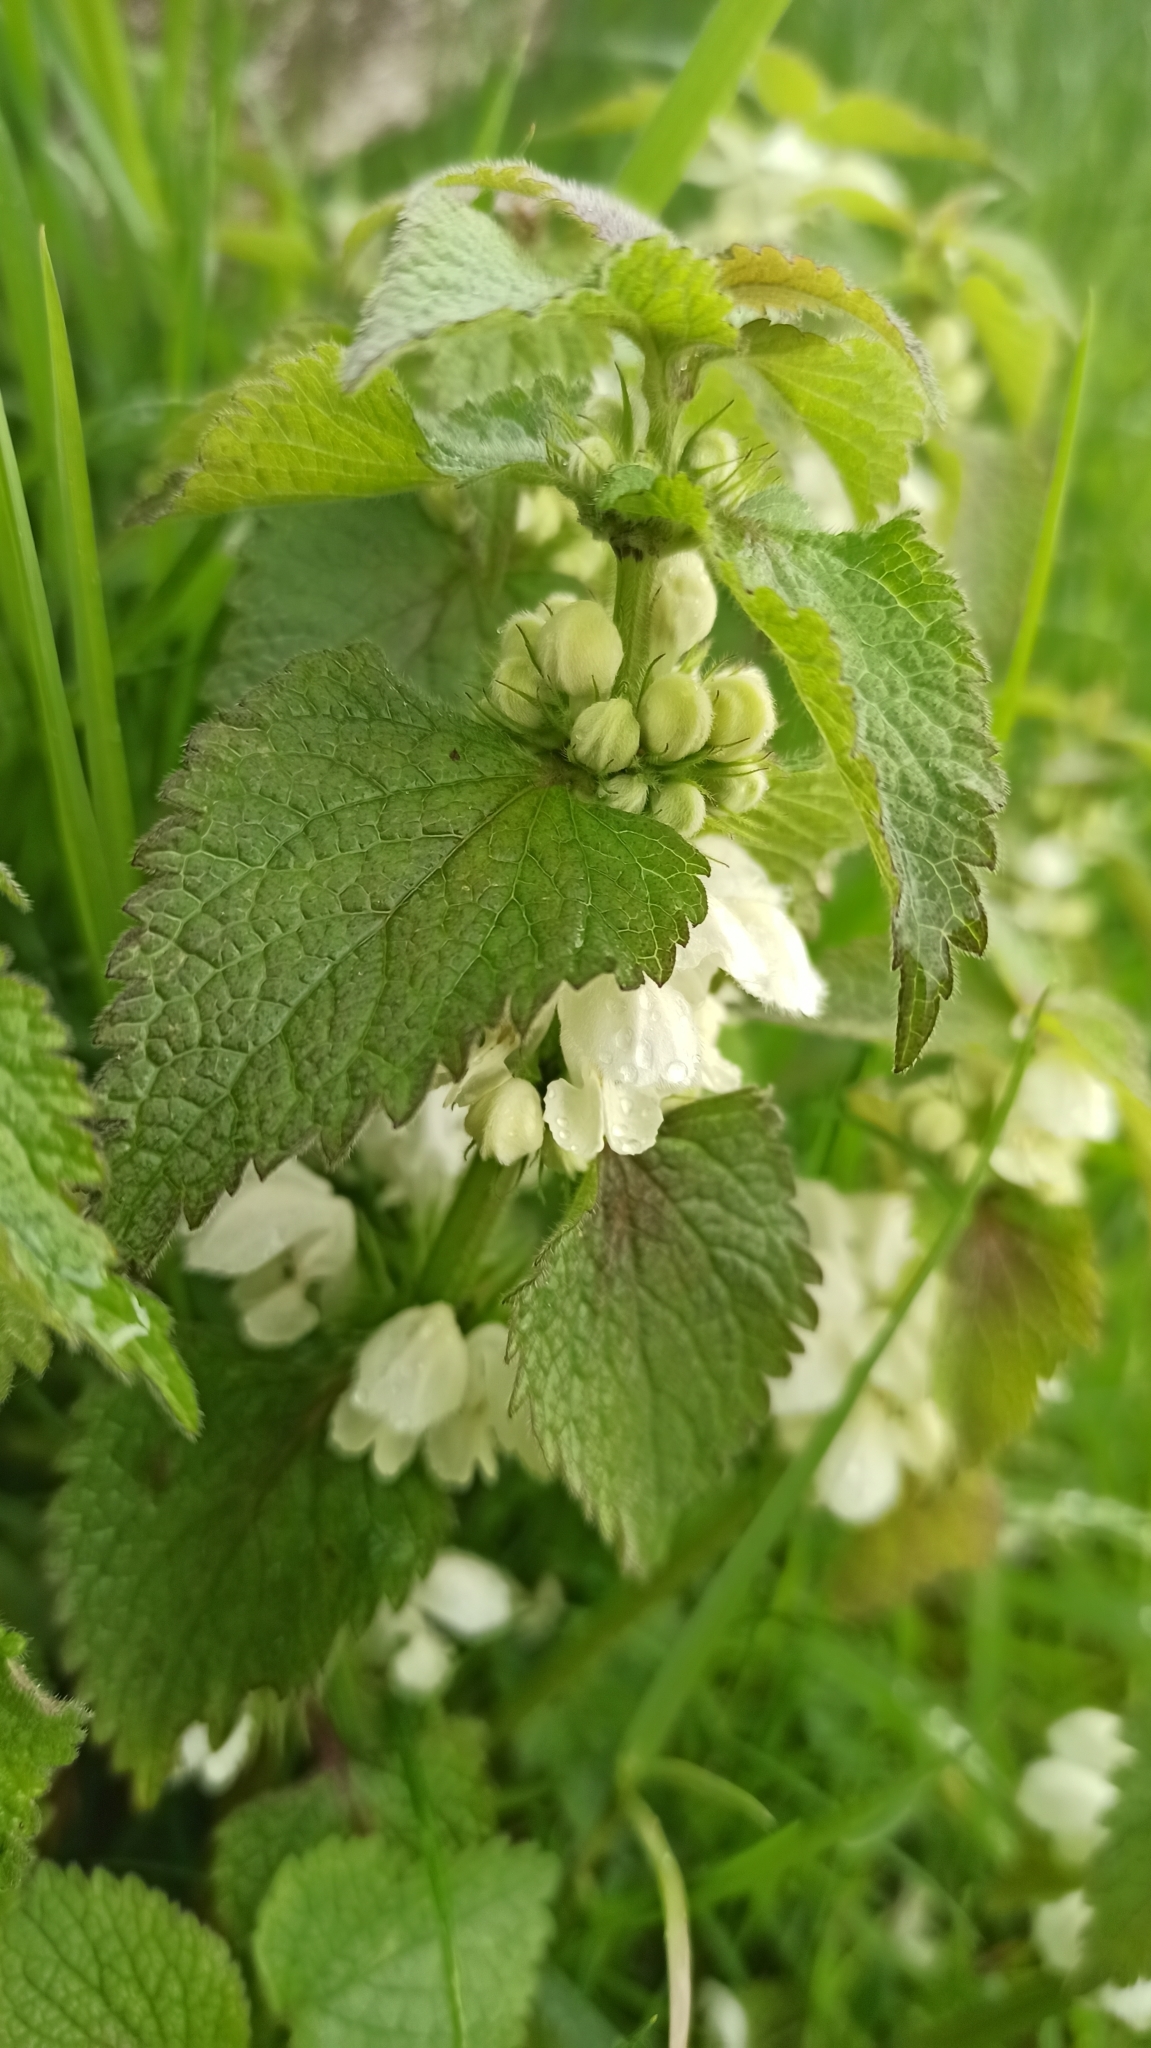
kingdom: Plantae
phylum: Tracheophyta
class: Magnoliopsida
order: Lamiales
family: Lamiaceae
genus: Lamium
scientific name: Lamium album
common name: White dead-nettle
